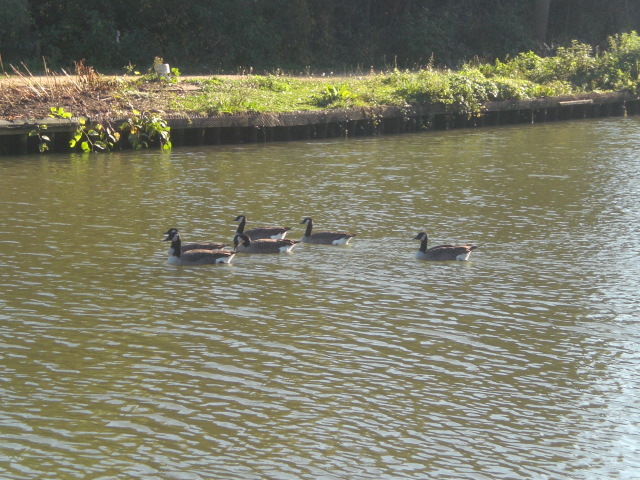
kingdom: Animalia
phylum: Chordata
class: Aves
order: Anseriformes
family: Anatidae
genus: Branta
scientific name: Branta canadensis
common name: Canada goose
